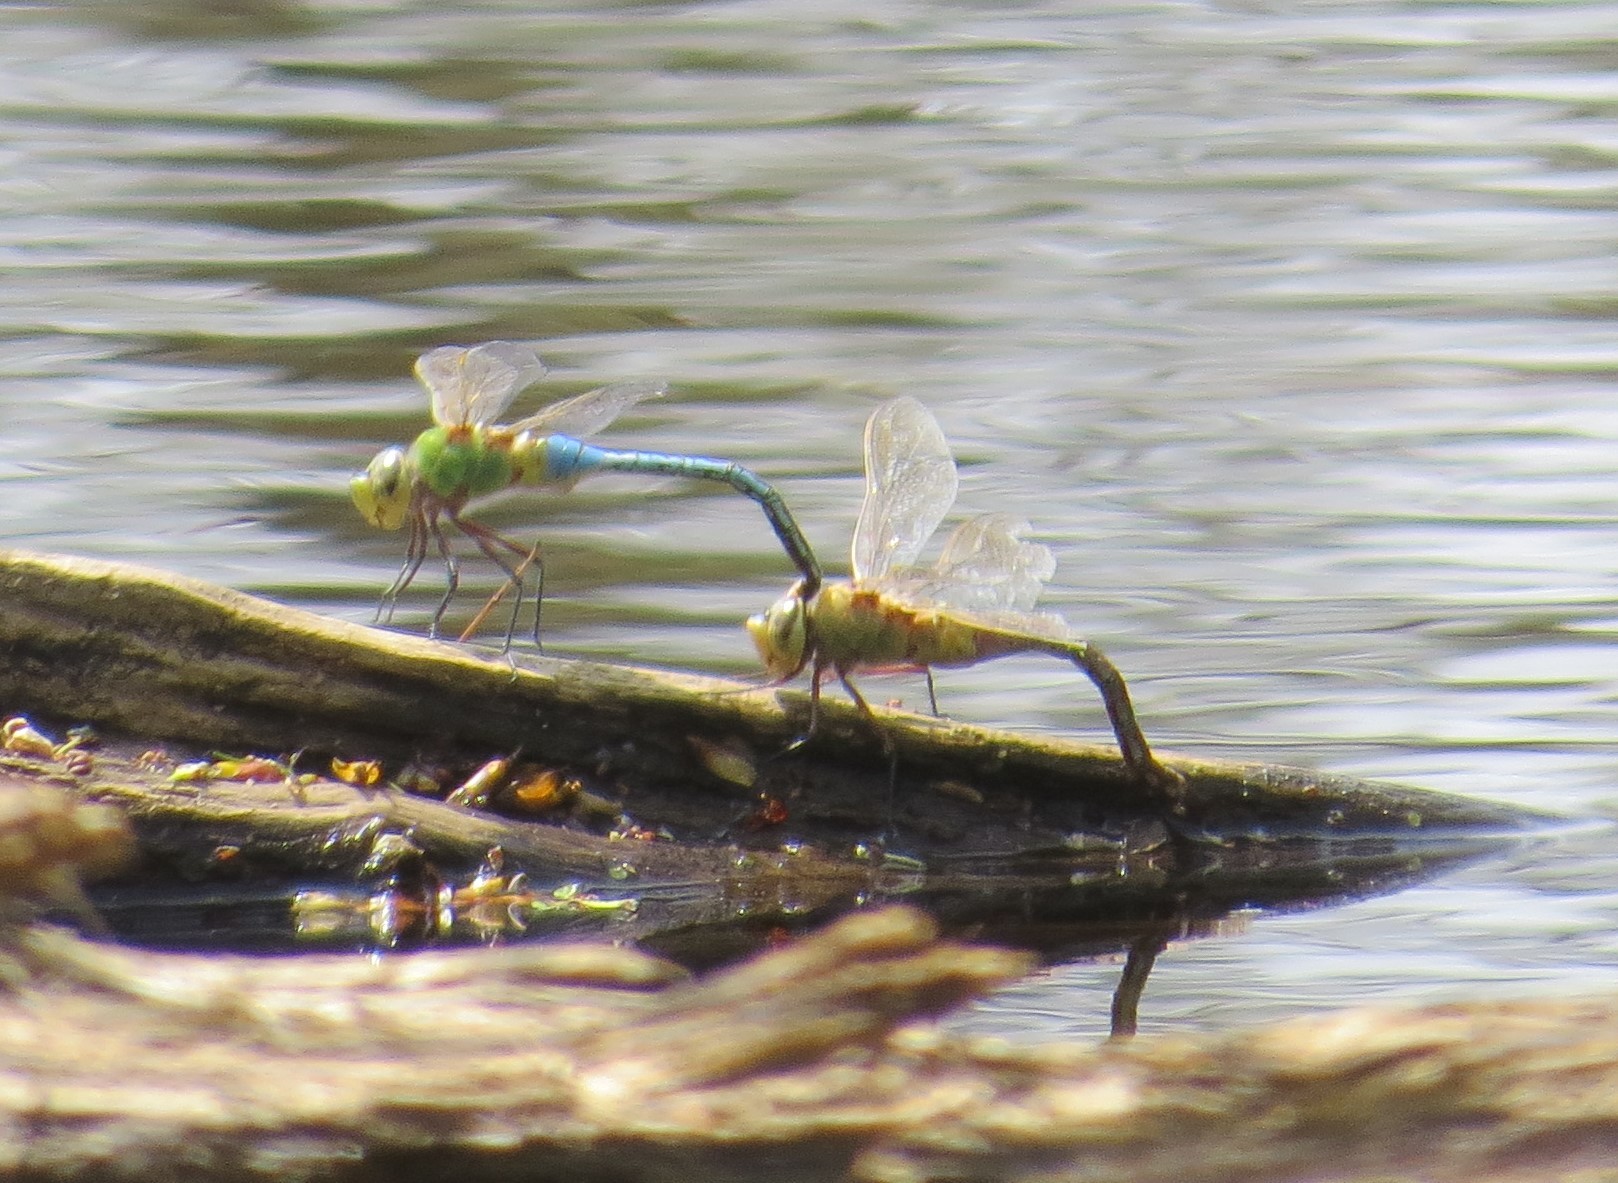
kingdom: Animalia
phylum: Arthropoda
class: Insecta
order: Odonata
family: Aeshnidae
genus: Anax
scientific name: Anax junius
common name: Common green darner
